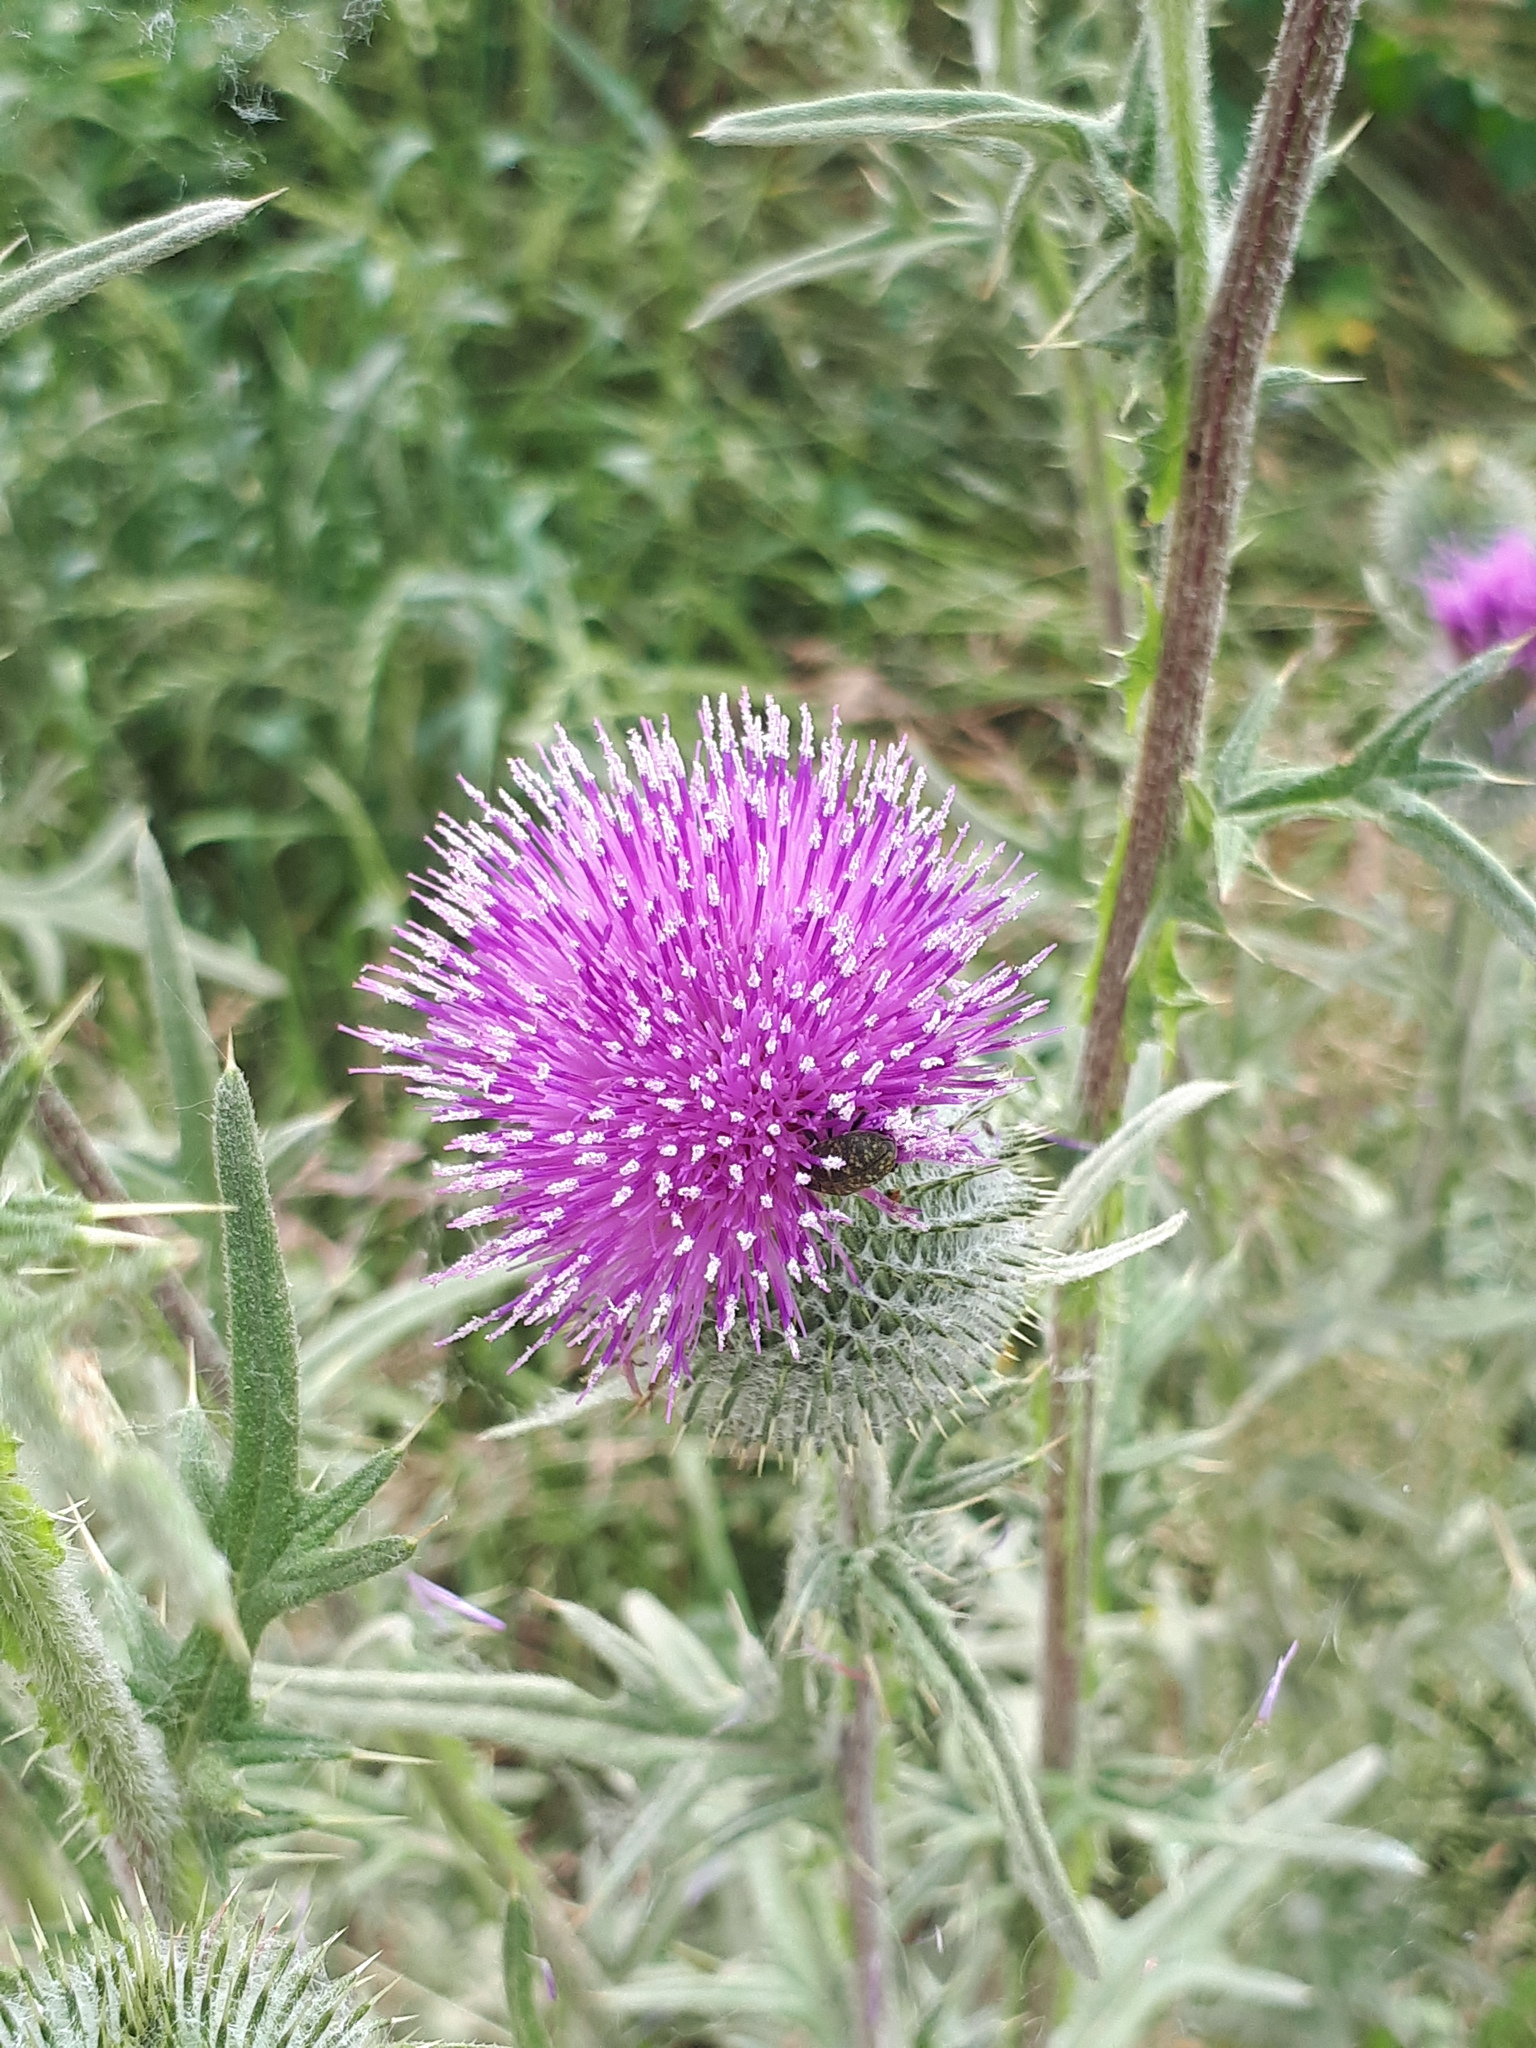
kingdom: Plantae
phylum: Tracheophyta
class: Magnoliopsida
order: Asterales
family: Asteraceae
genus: Cirsium
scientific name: Cirsium vulgare
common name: Bull thistle
